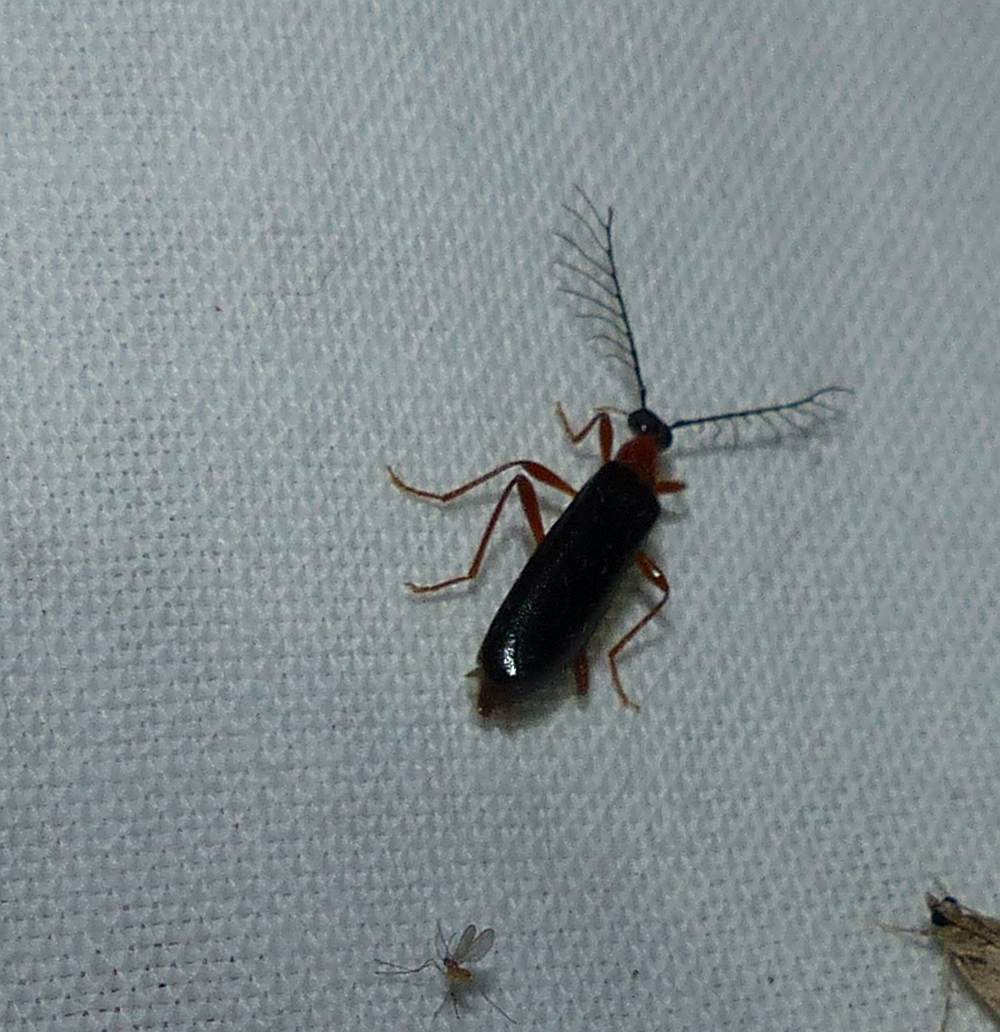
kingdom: Animalia
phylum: Arthropoda
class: Insecta
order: Coleoptera
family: Pyrochroidae
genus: Dendroides
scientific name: Dendroides canadensis
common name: Canada fire-colored beetle
